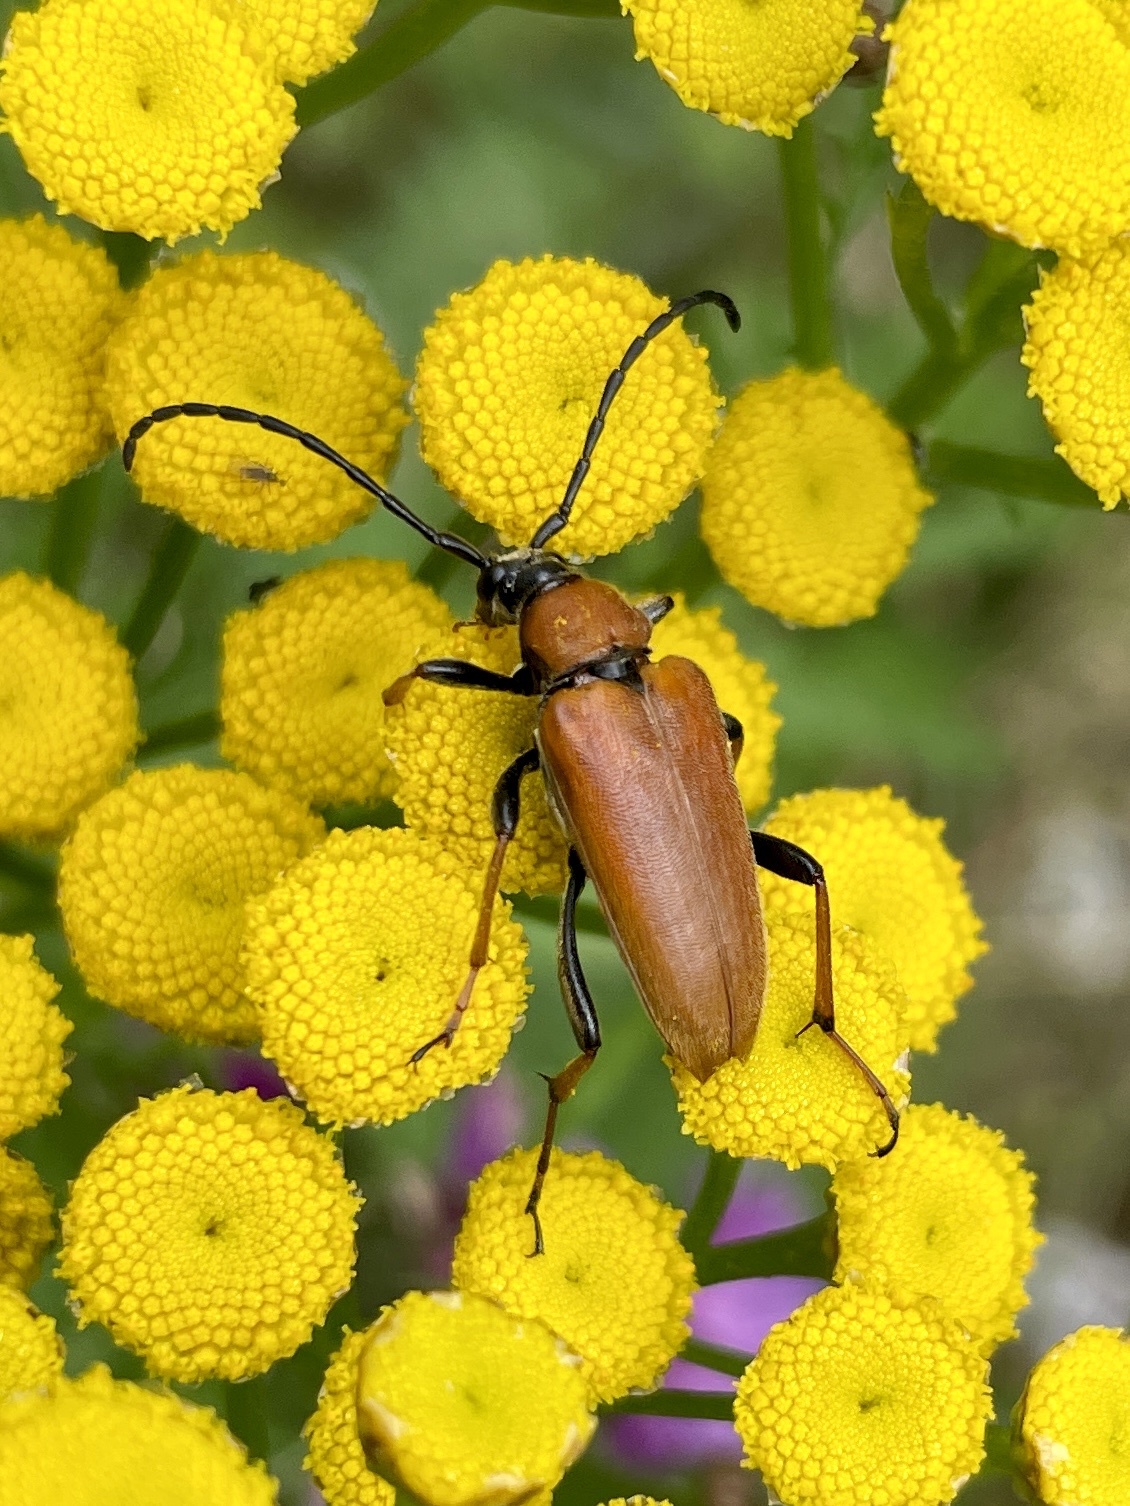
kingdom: Animalia
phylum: Arthropoda
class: Insecta
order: Coleoptera
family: Cerambycidae
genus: Stictoleptura
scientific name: Stictoleptura rubra
